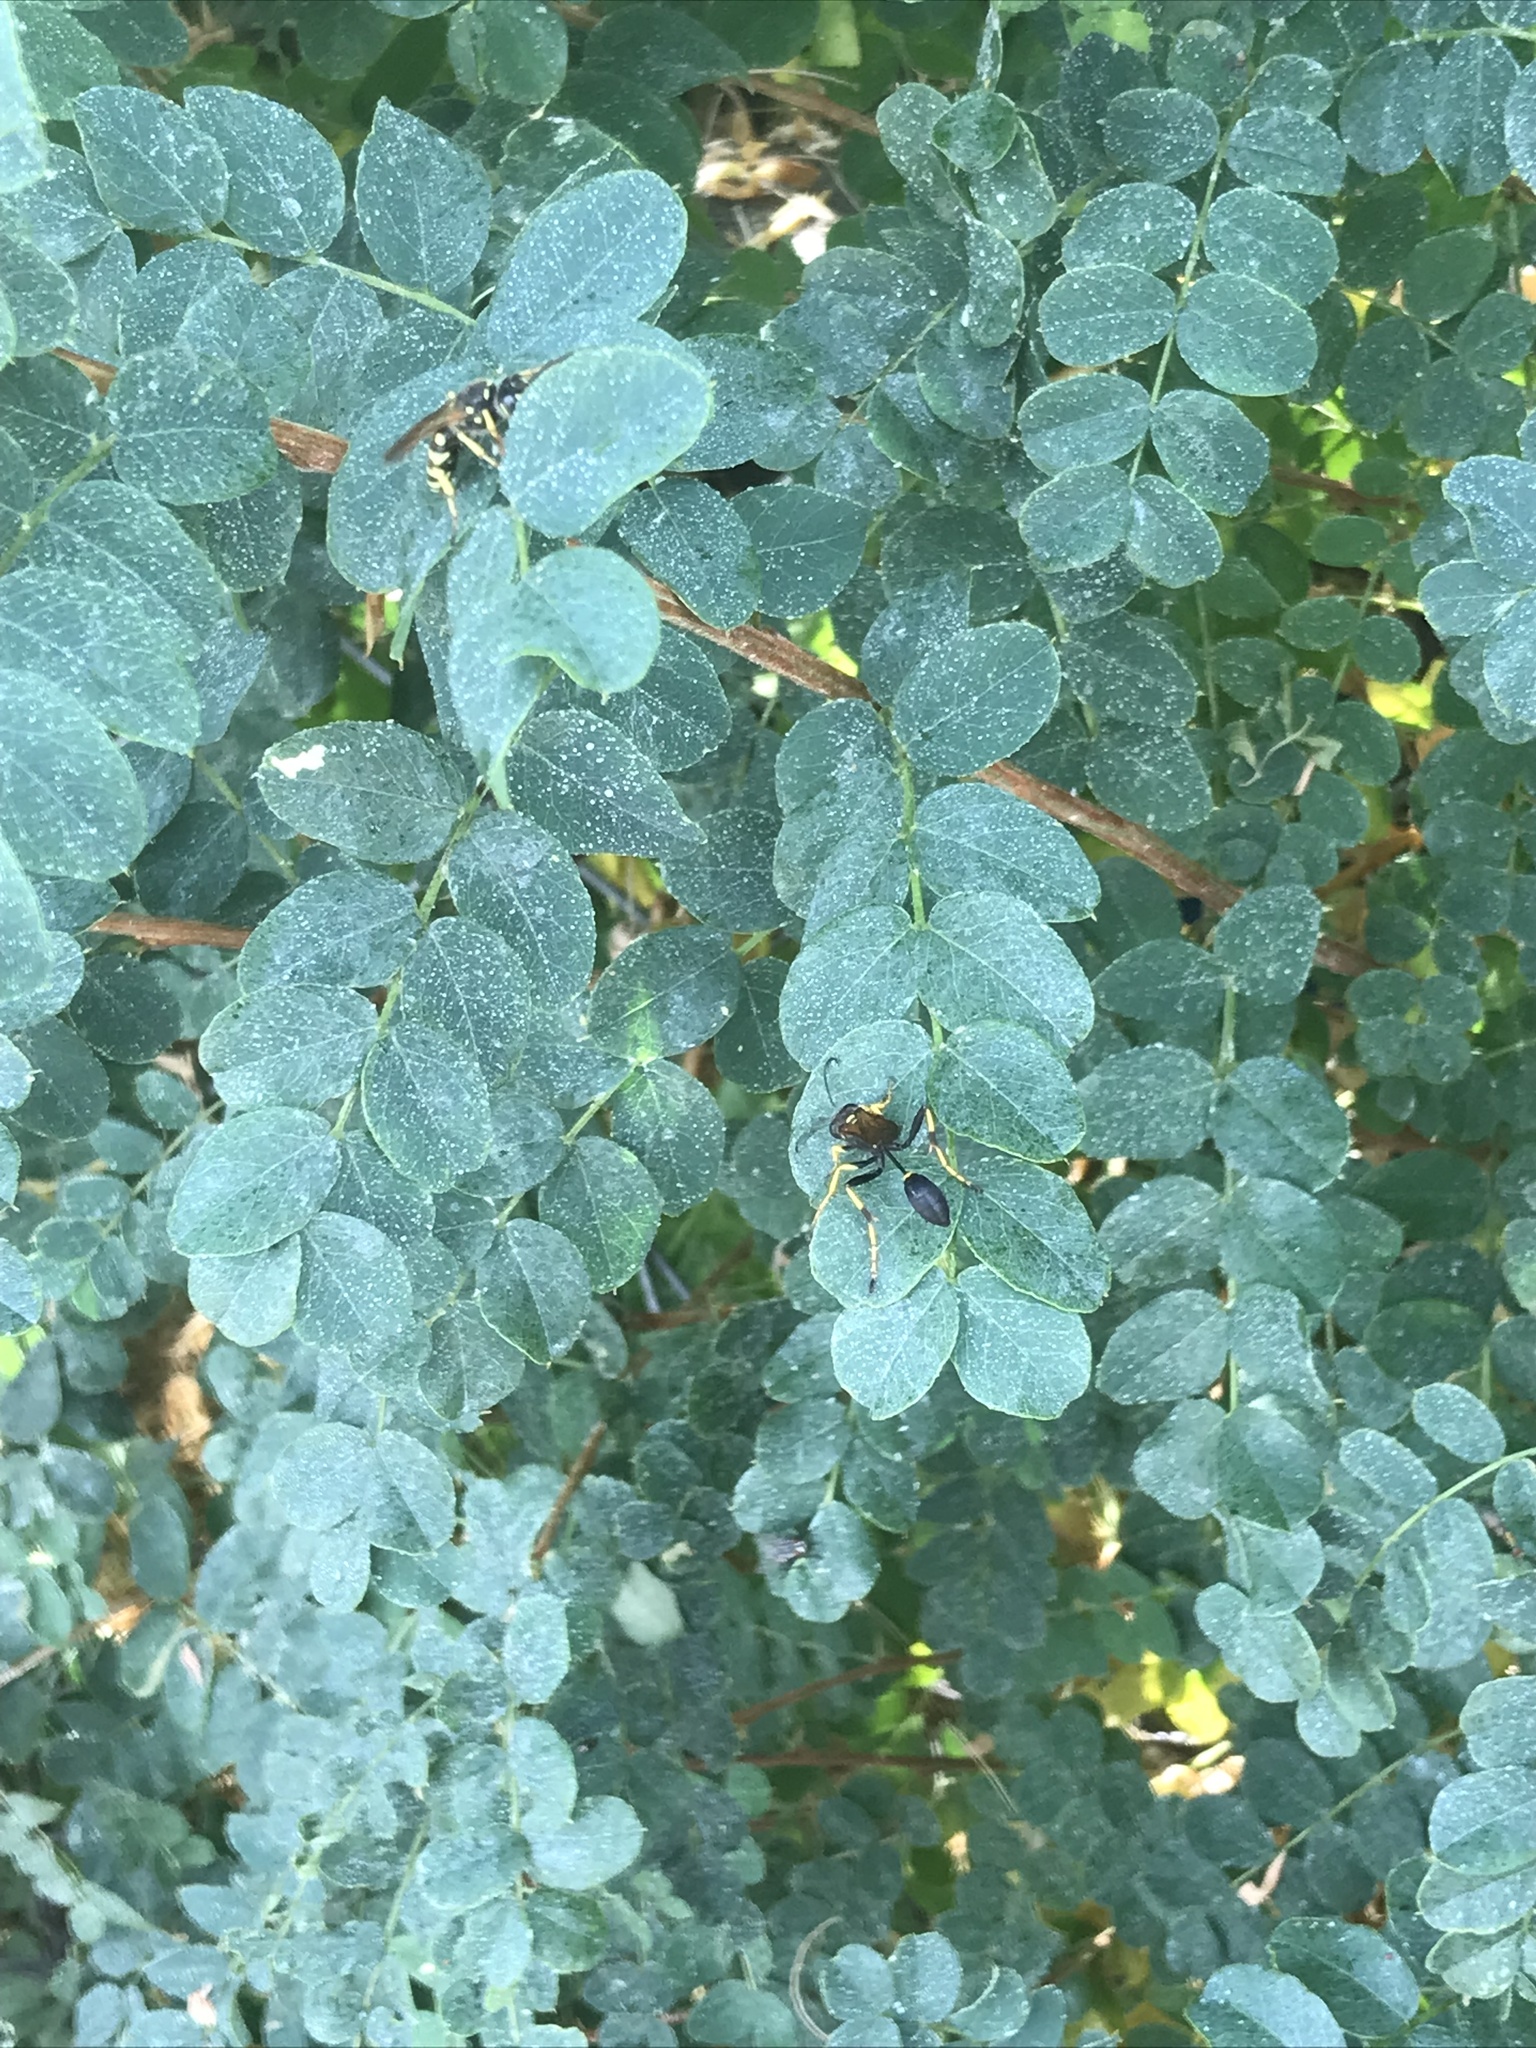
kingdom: Animalia
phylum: Arthropoda
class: Insecta
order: Hymenoptera
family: Sphecidae
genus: Sceliphron
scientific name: Sceliphron caementarium
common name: Mud dauber
